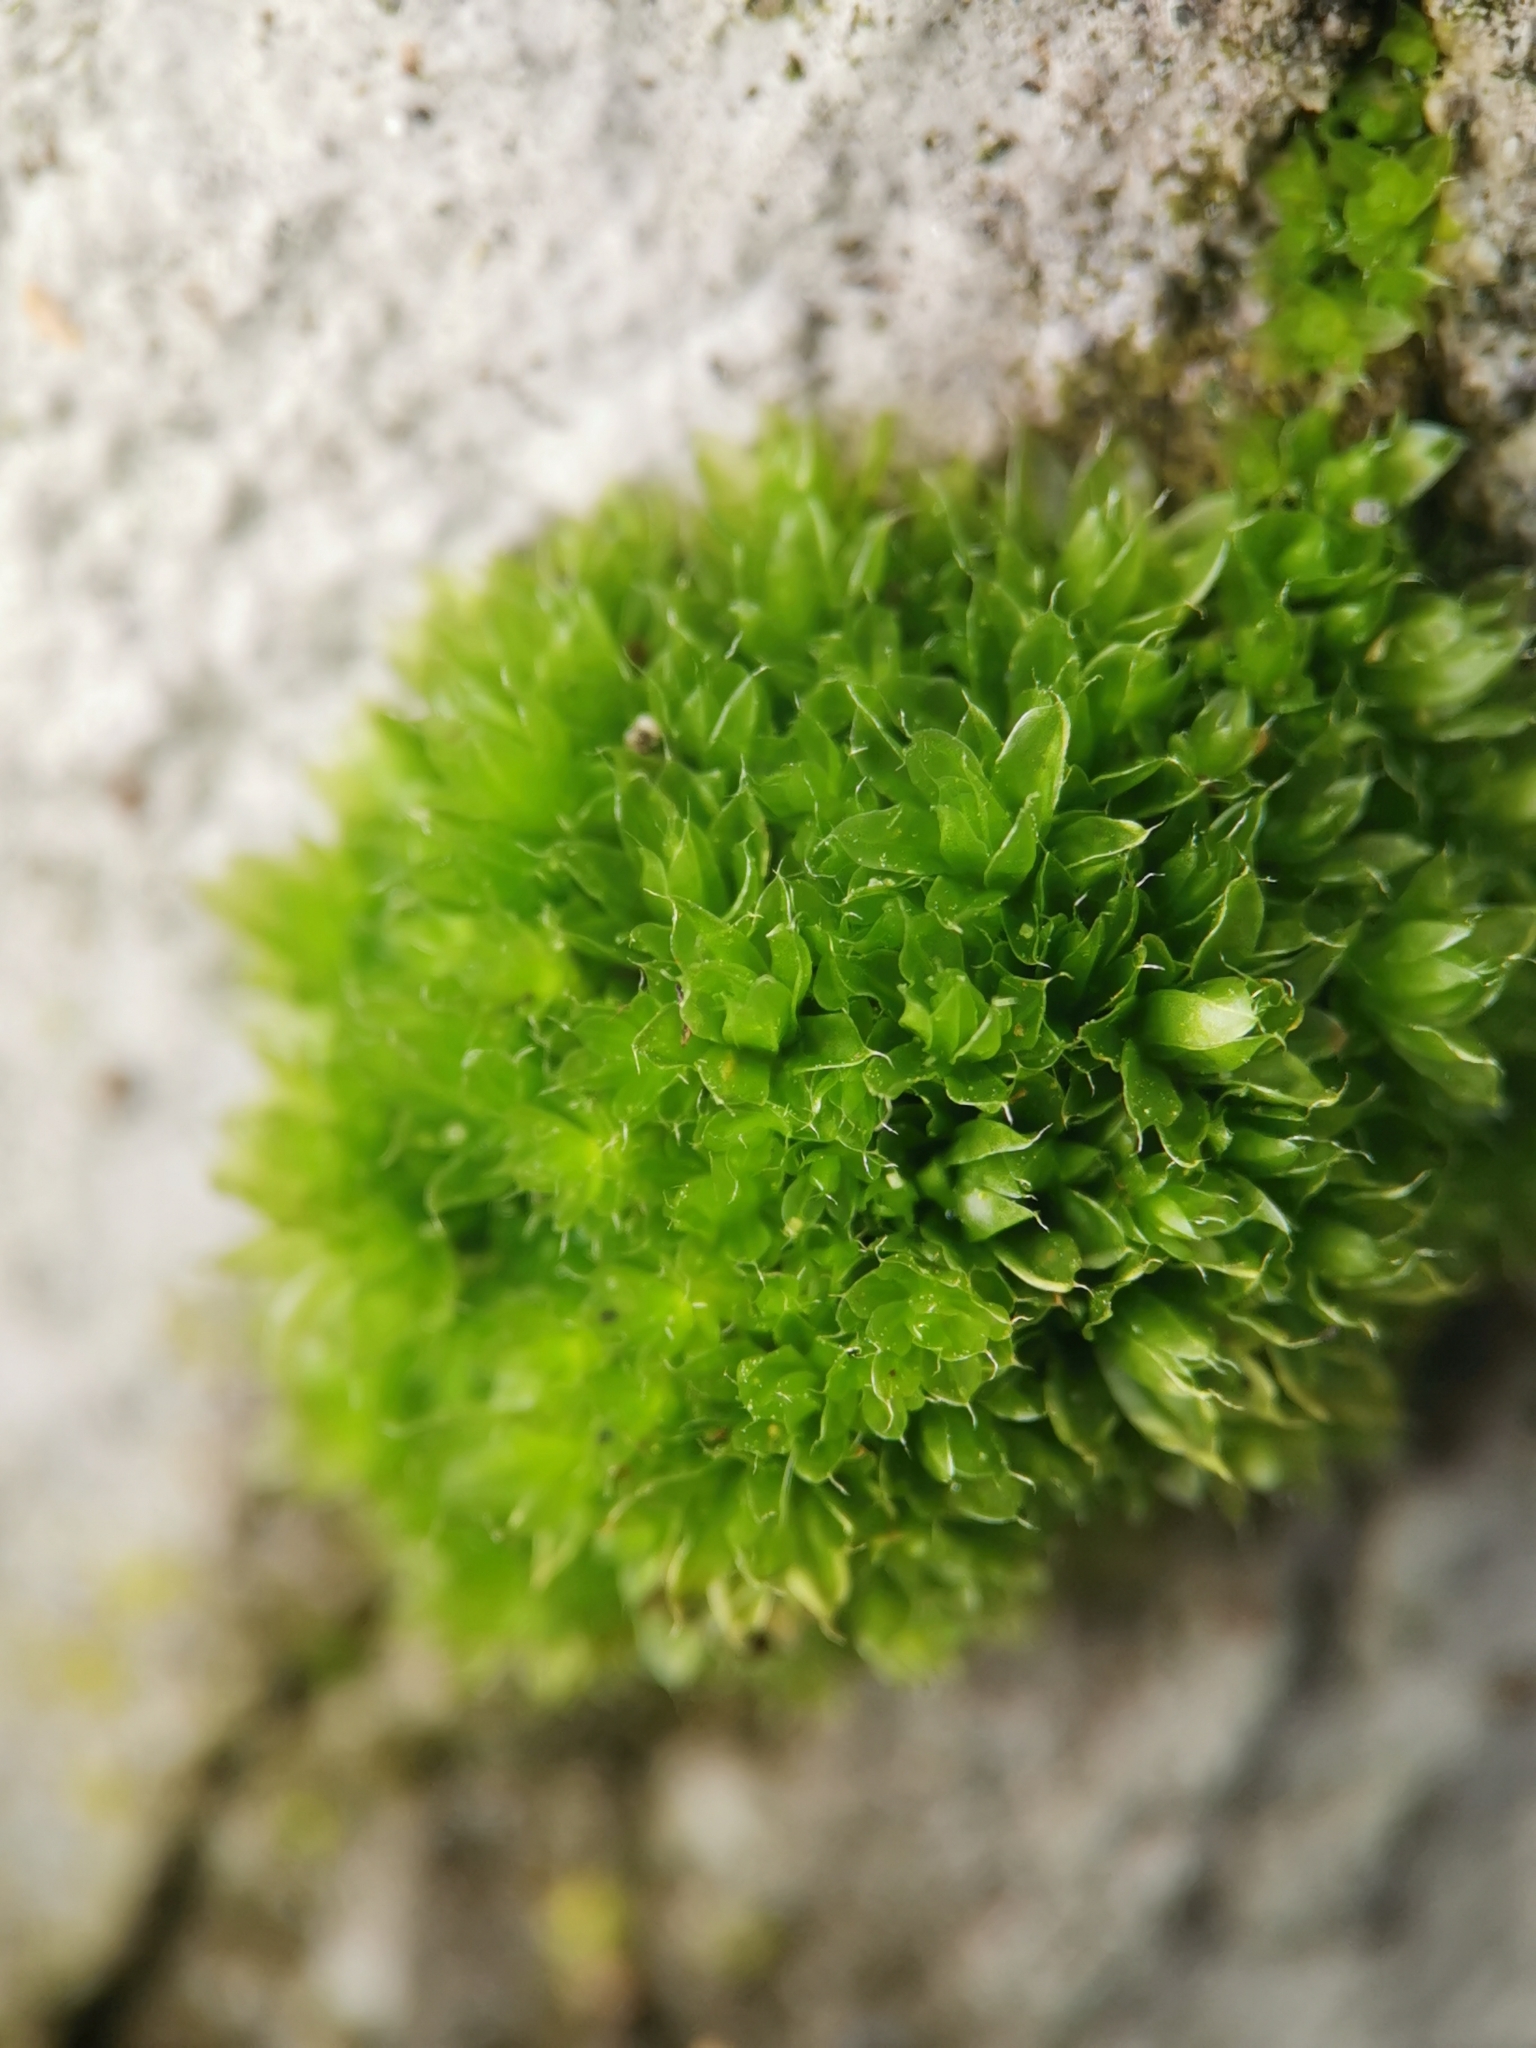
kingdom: Plantae
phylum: Bryophyta
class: Bryopsida
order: Bryales
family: Bryaceae
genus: Rosulabryum
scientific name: Rosulabryum capillare
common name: Capillary thread-moss
